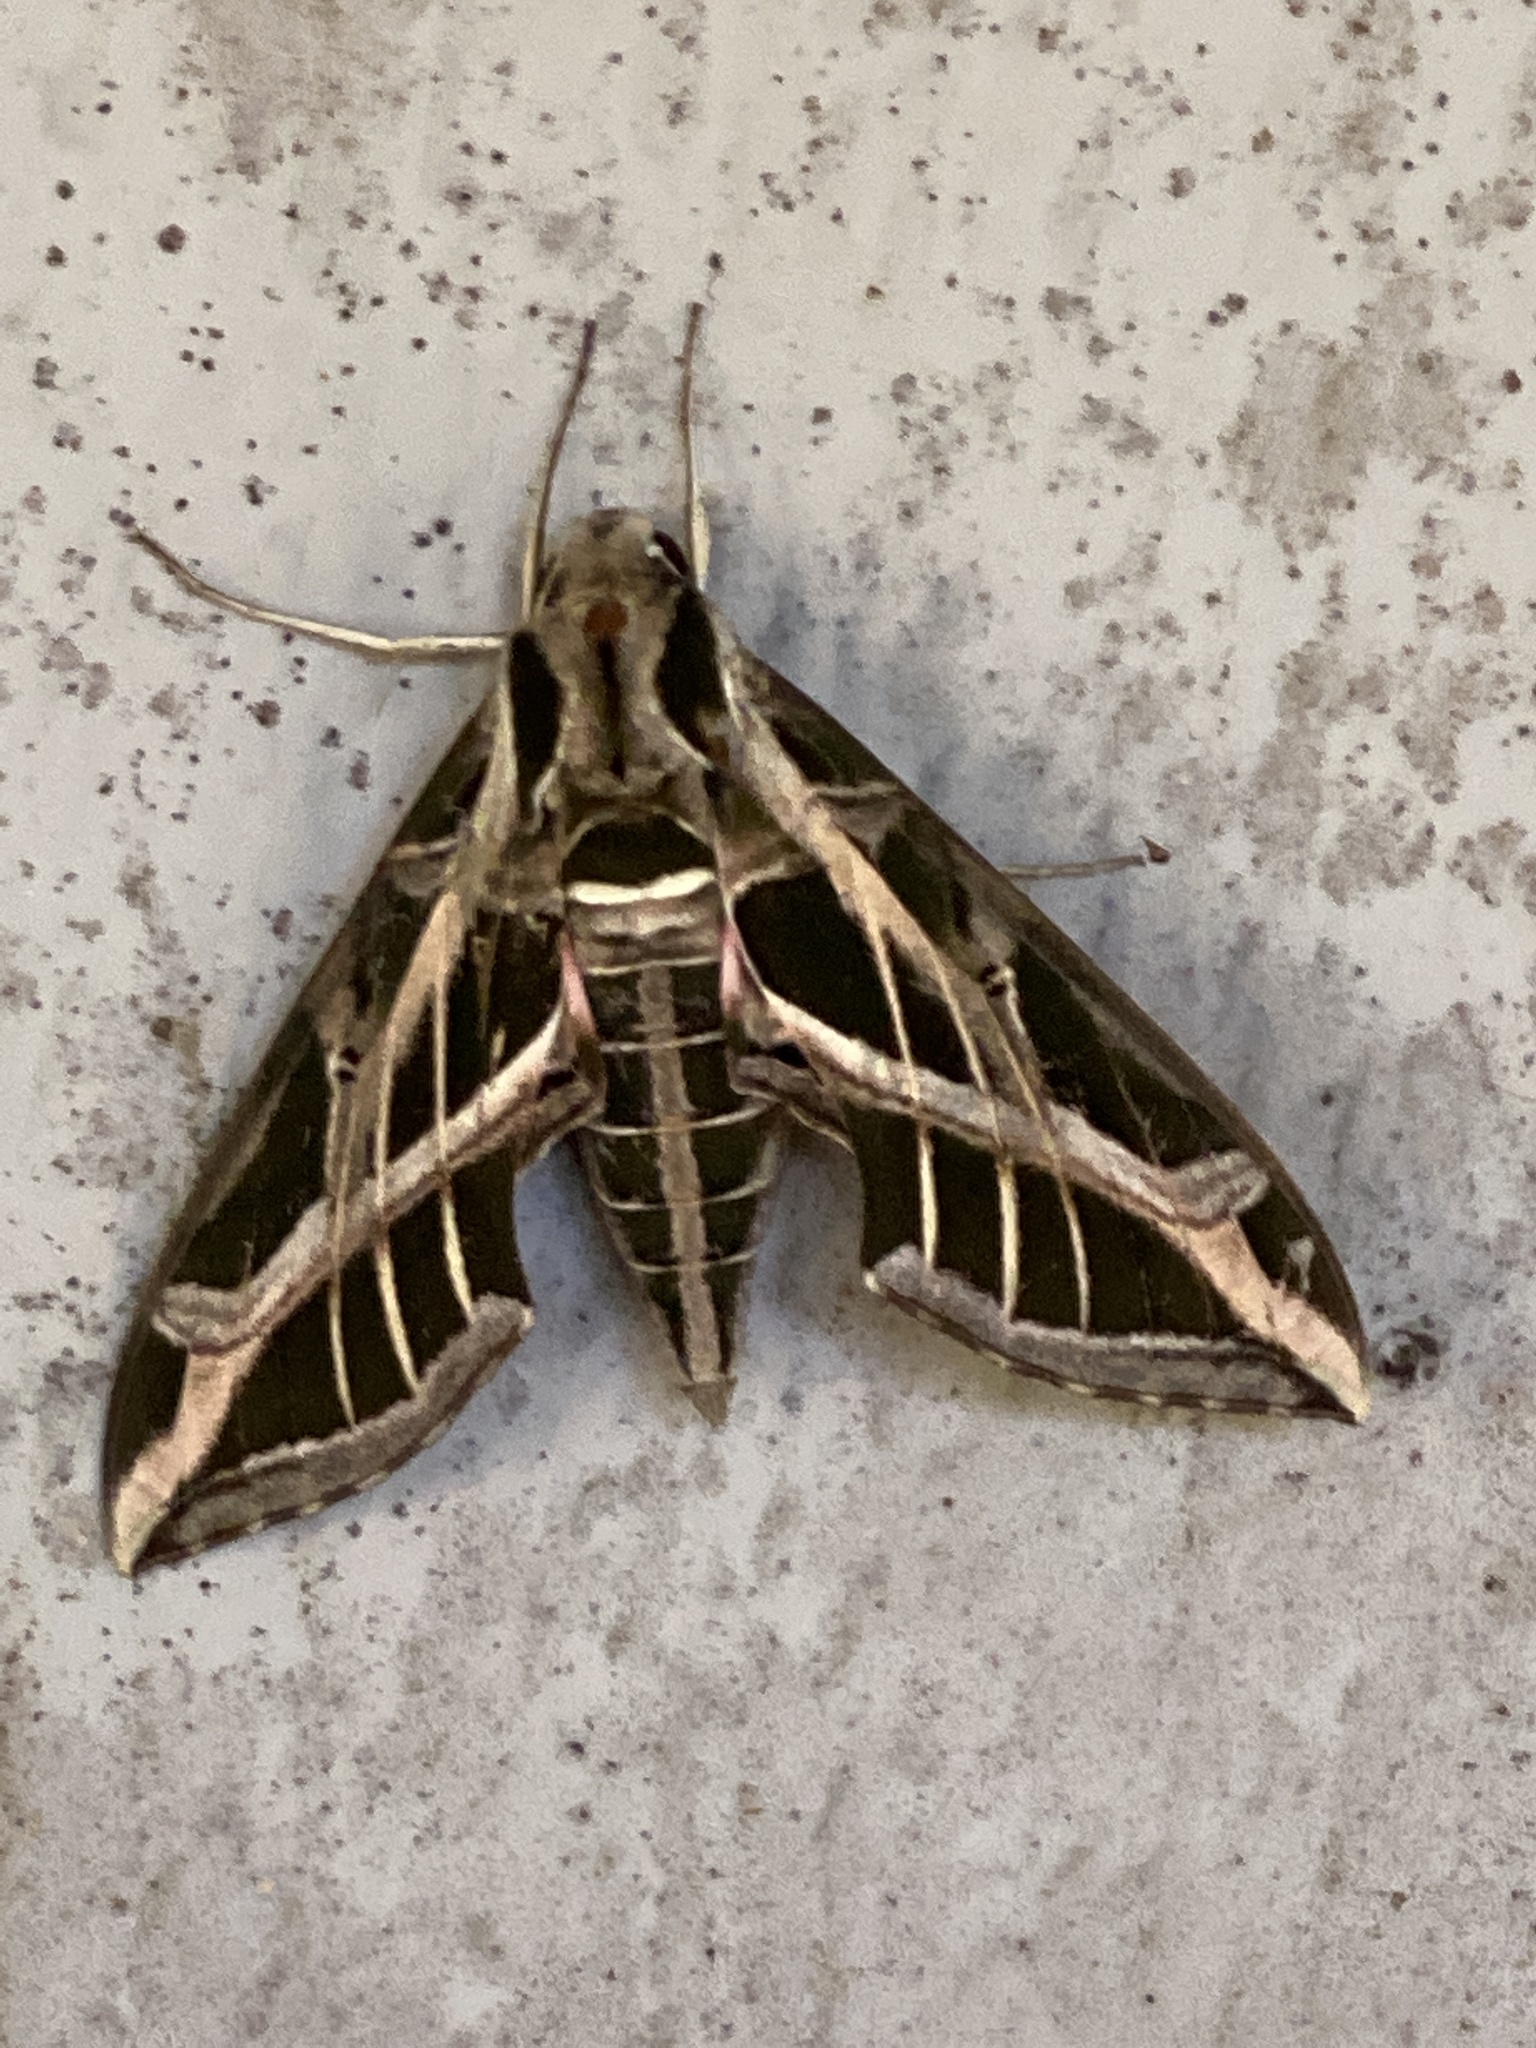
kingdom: Animalia
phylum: Arthropoda
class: Insecta
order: Lepidoptera
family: Sphingidae
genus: Eumorpha
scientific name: Eumorpha vitis
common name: Vine sphinx
